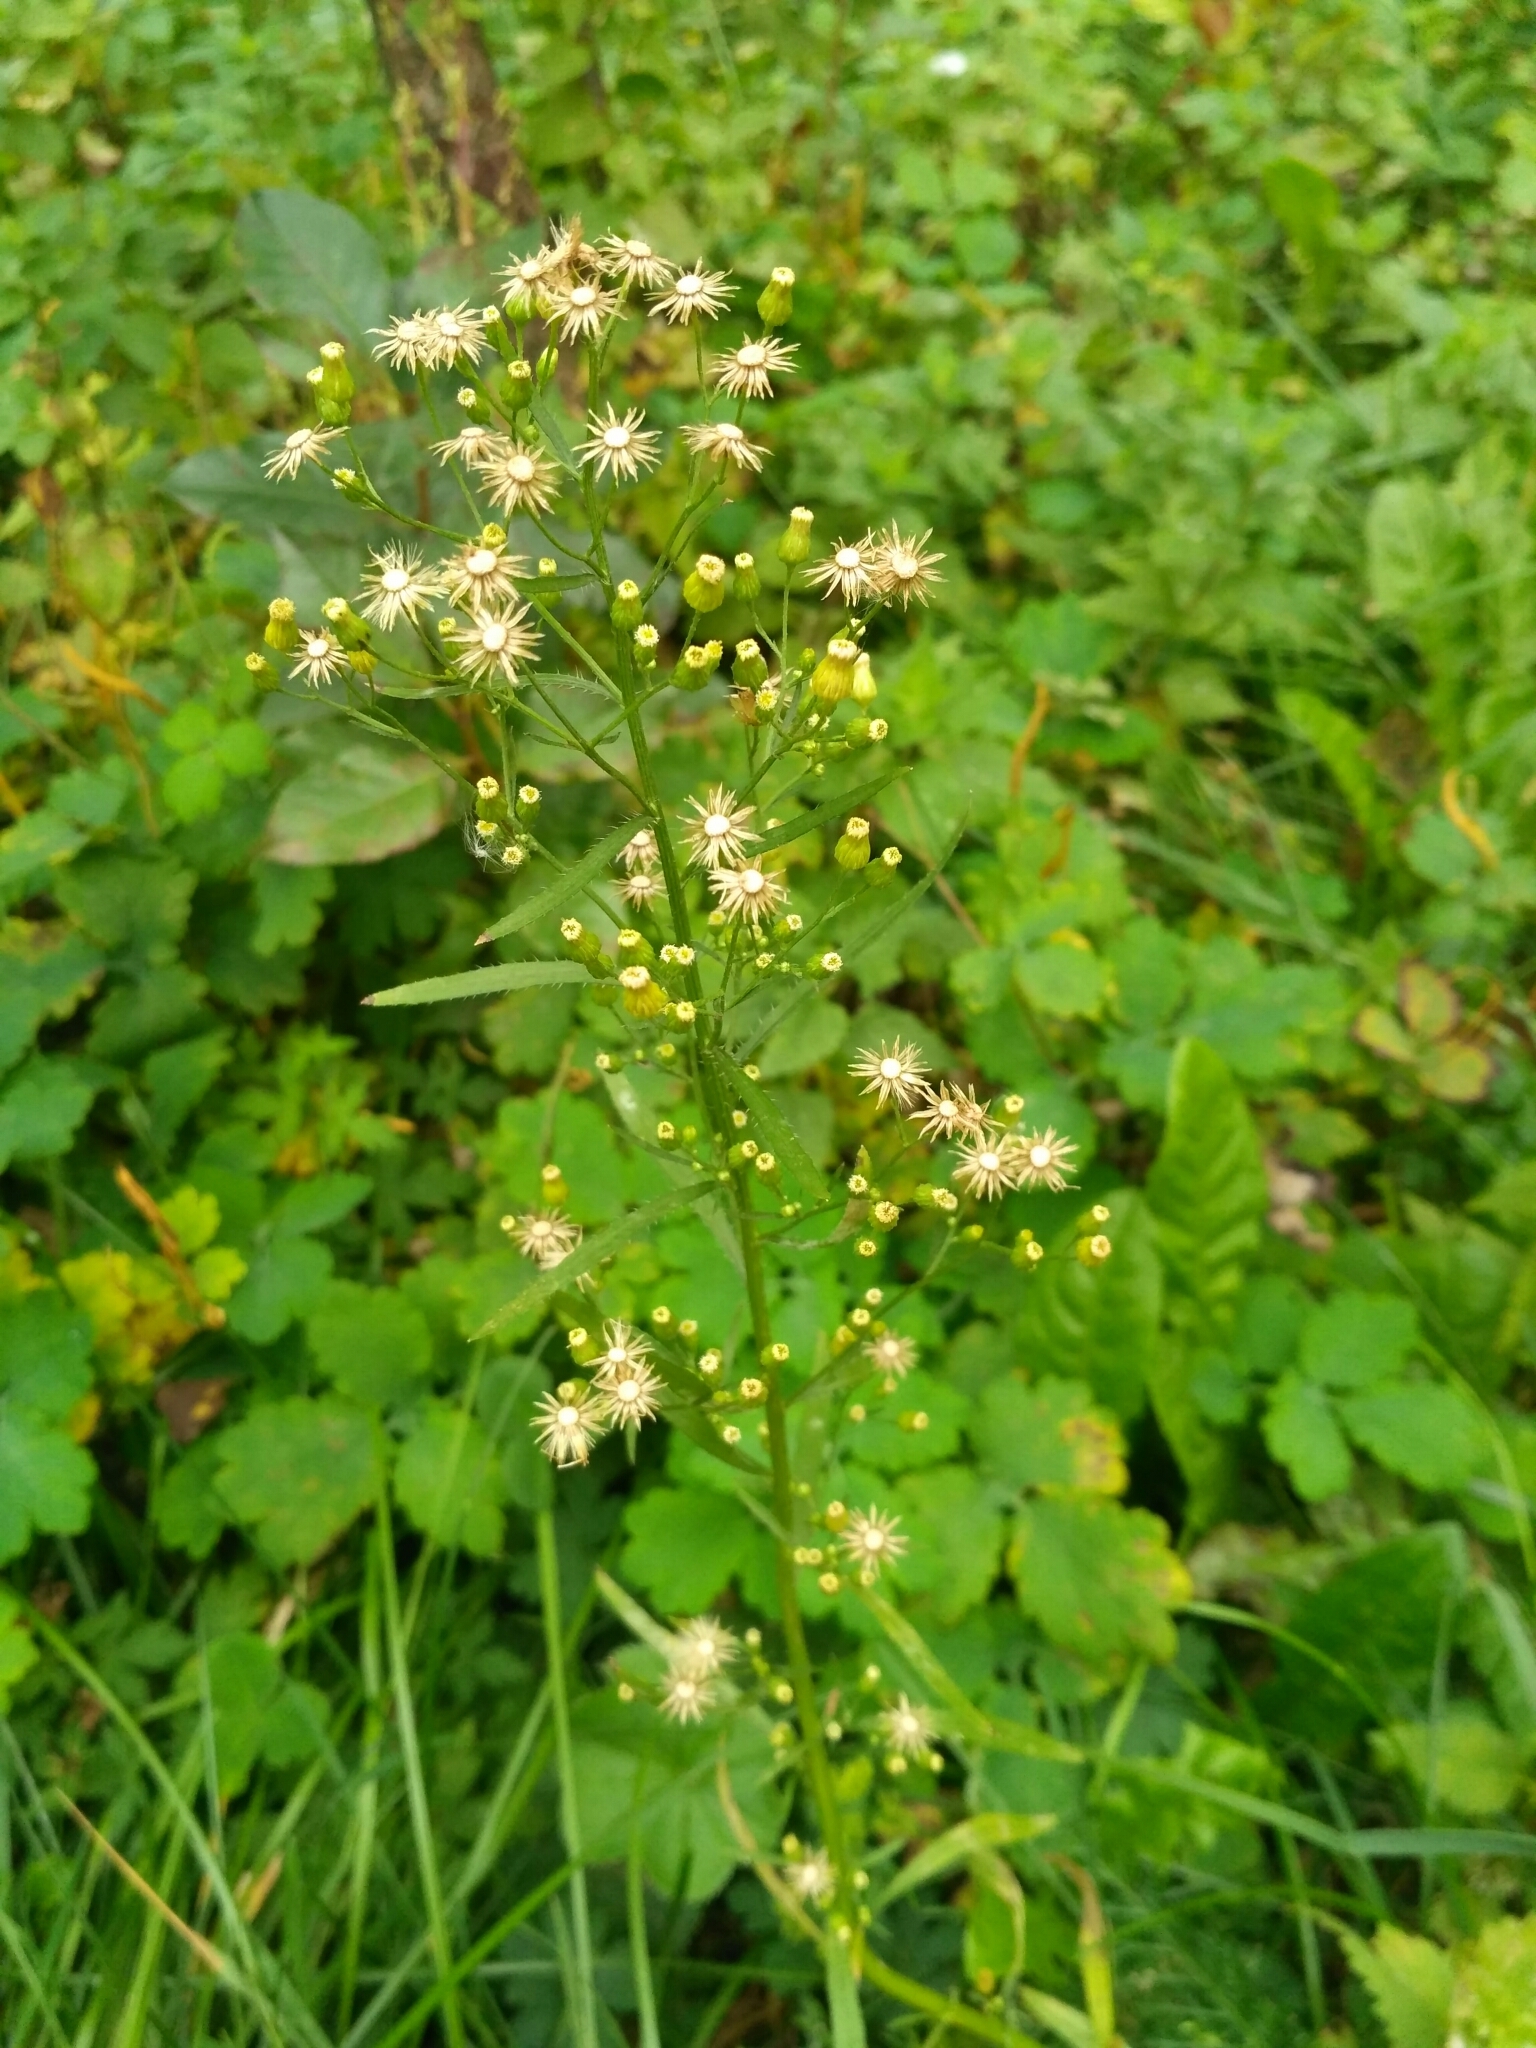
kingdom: Plantae
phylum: Tracheophyta
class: Magnoliopsida
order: Asterales
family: Asteraceae
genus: Erigeron
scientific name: Erigeron canadensis
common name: Canadian fleabane
